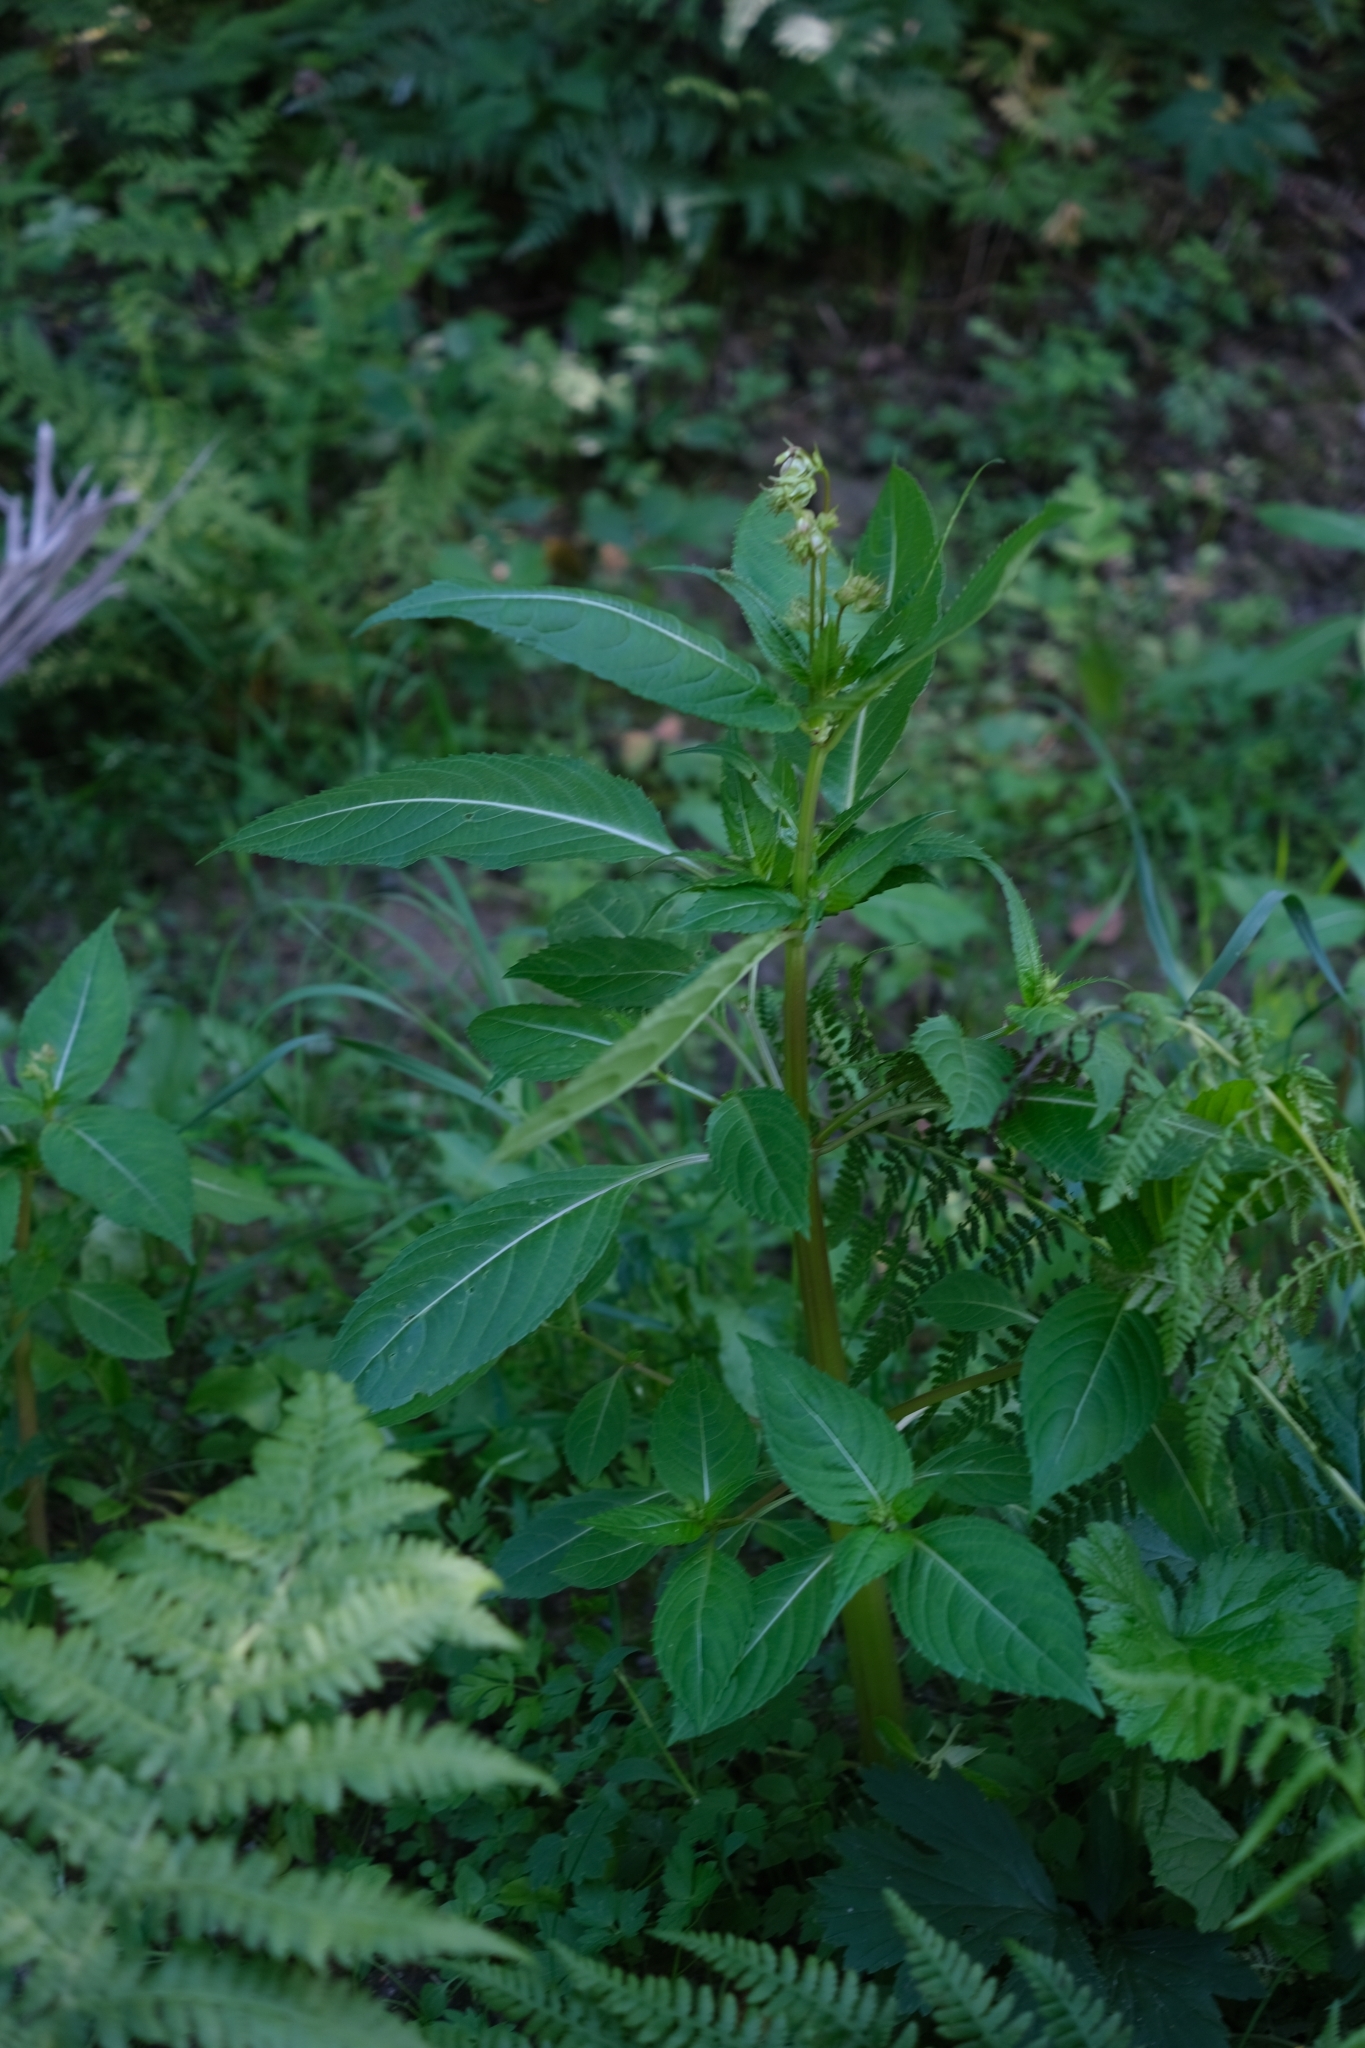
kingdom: Plantae
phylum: Tracheophyta
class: Magnoliopsida
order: Ericales
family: Balsaminaceae
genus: Impatiens
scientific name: Impatiens glandulifera
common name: Himalayan balsam
